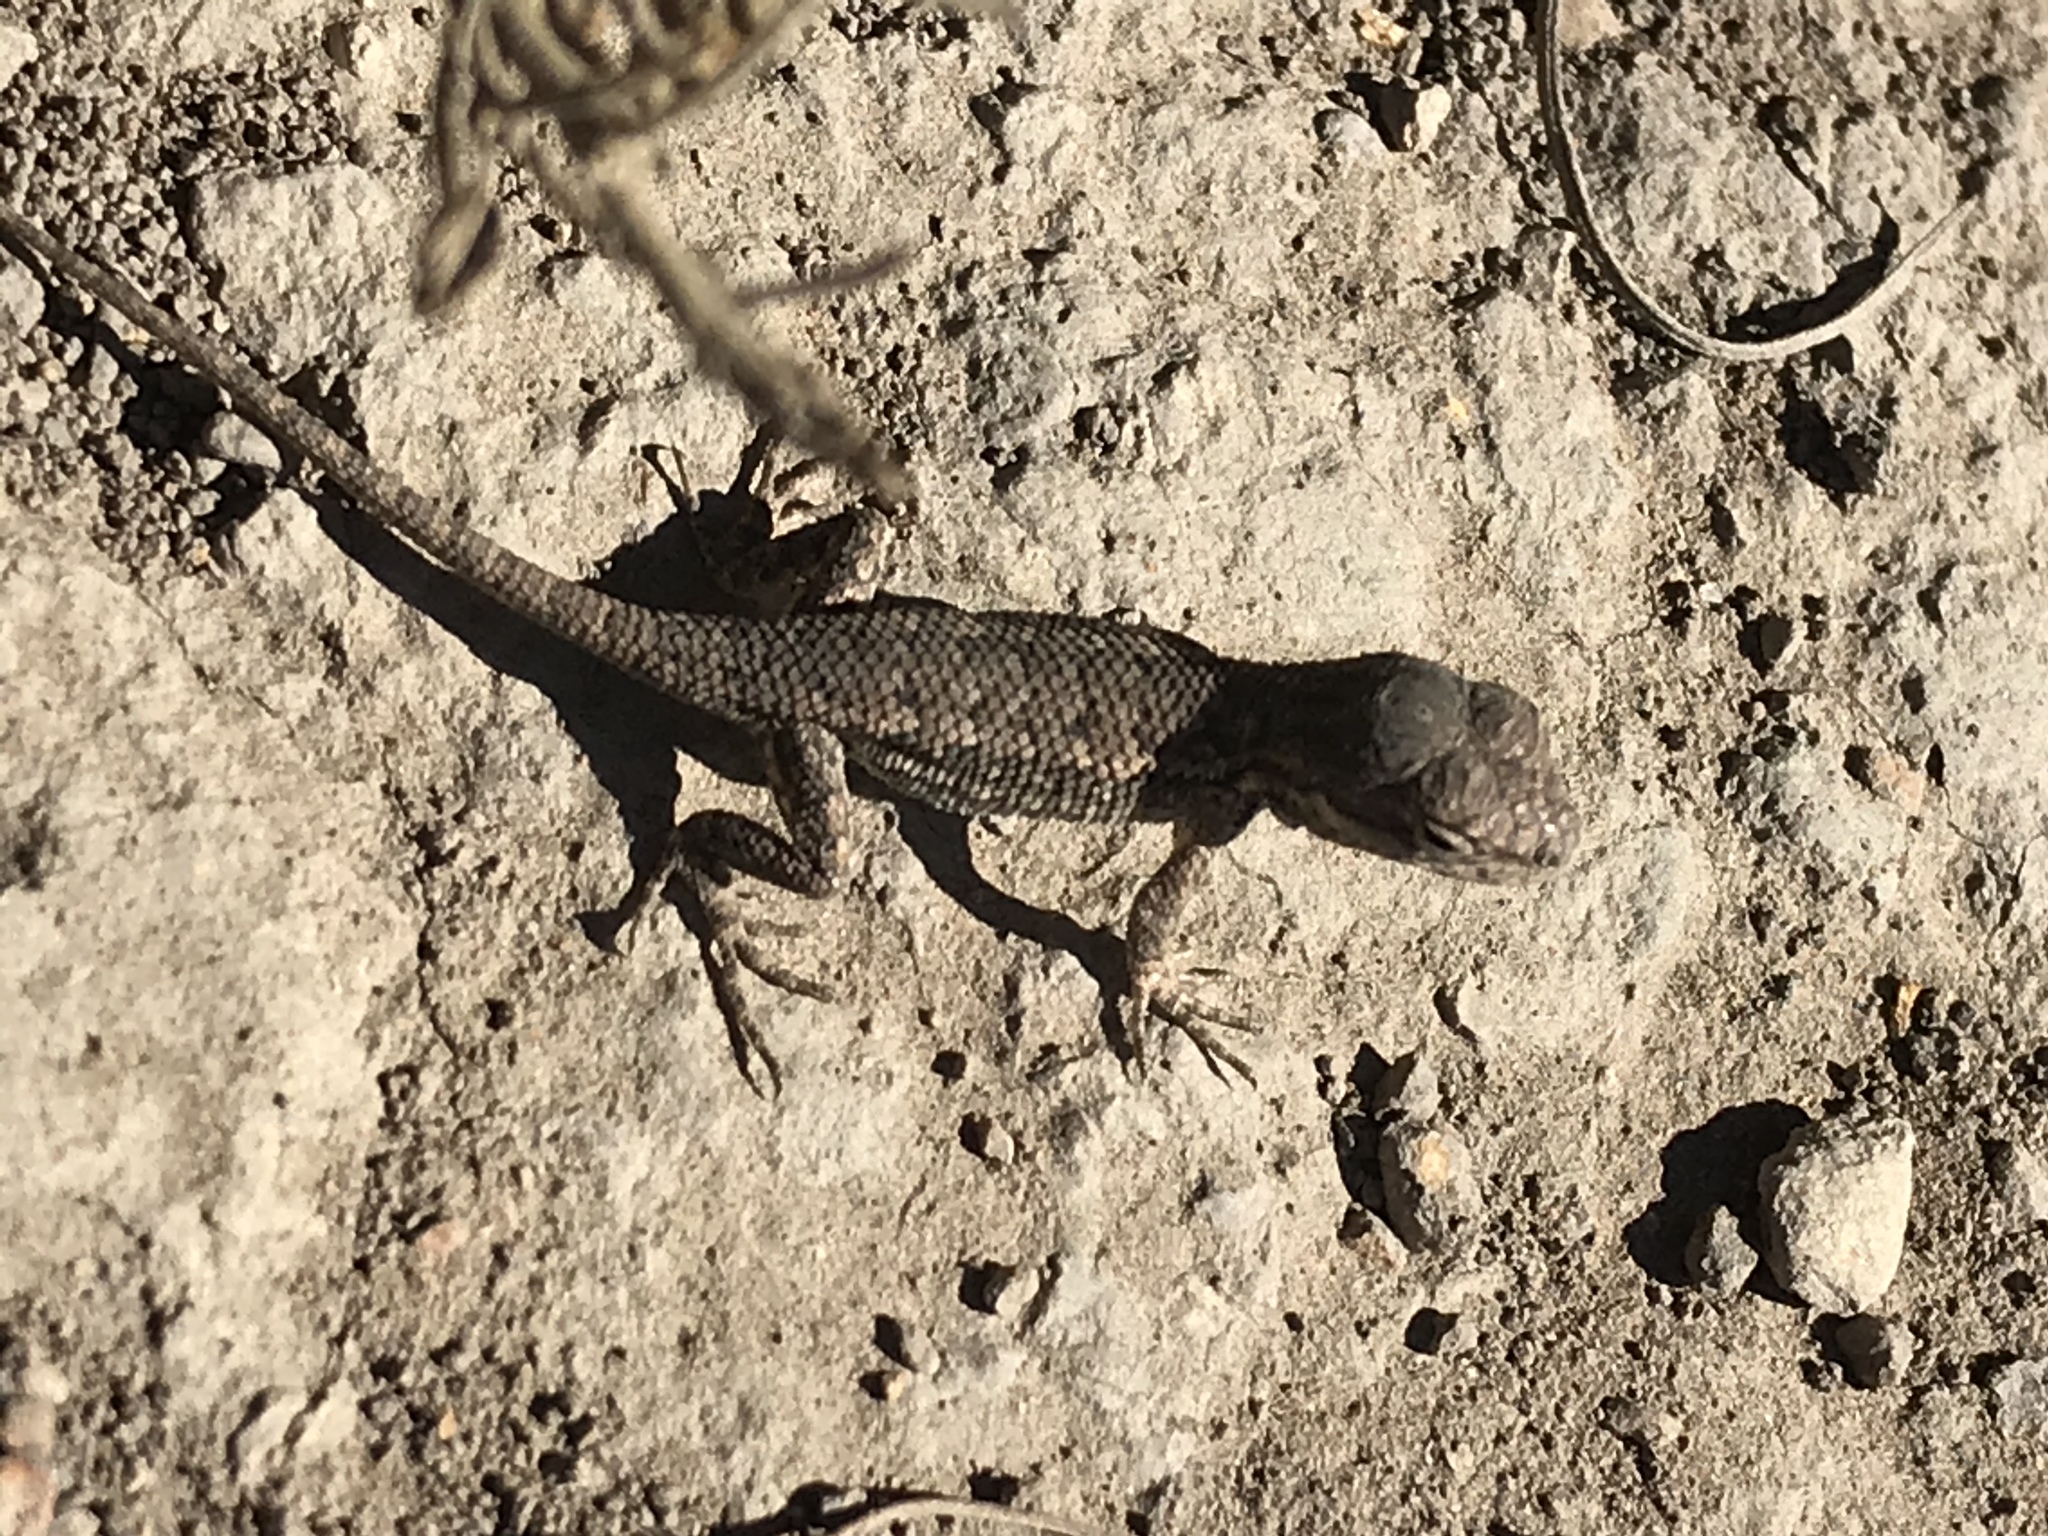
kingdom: Animalia
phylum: Chordata
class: Squamata
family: Phrynosomatidae
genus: Sceloporus
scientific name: Sceloporus occidentalis
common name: Western fence lizard
